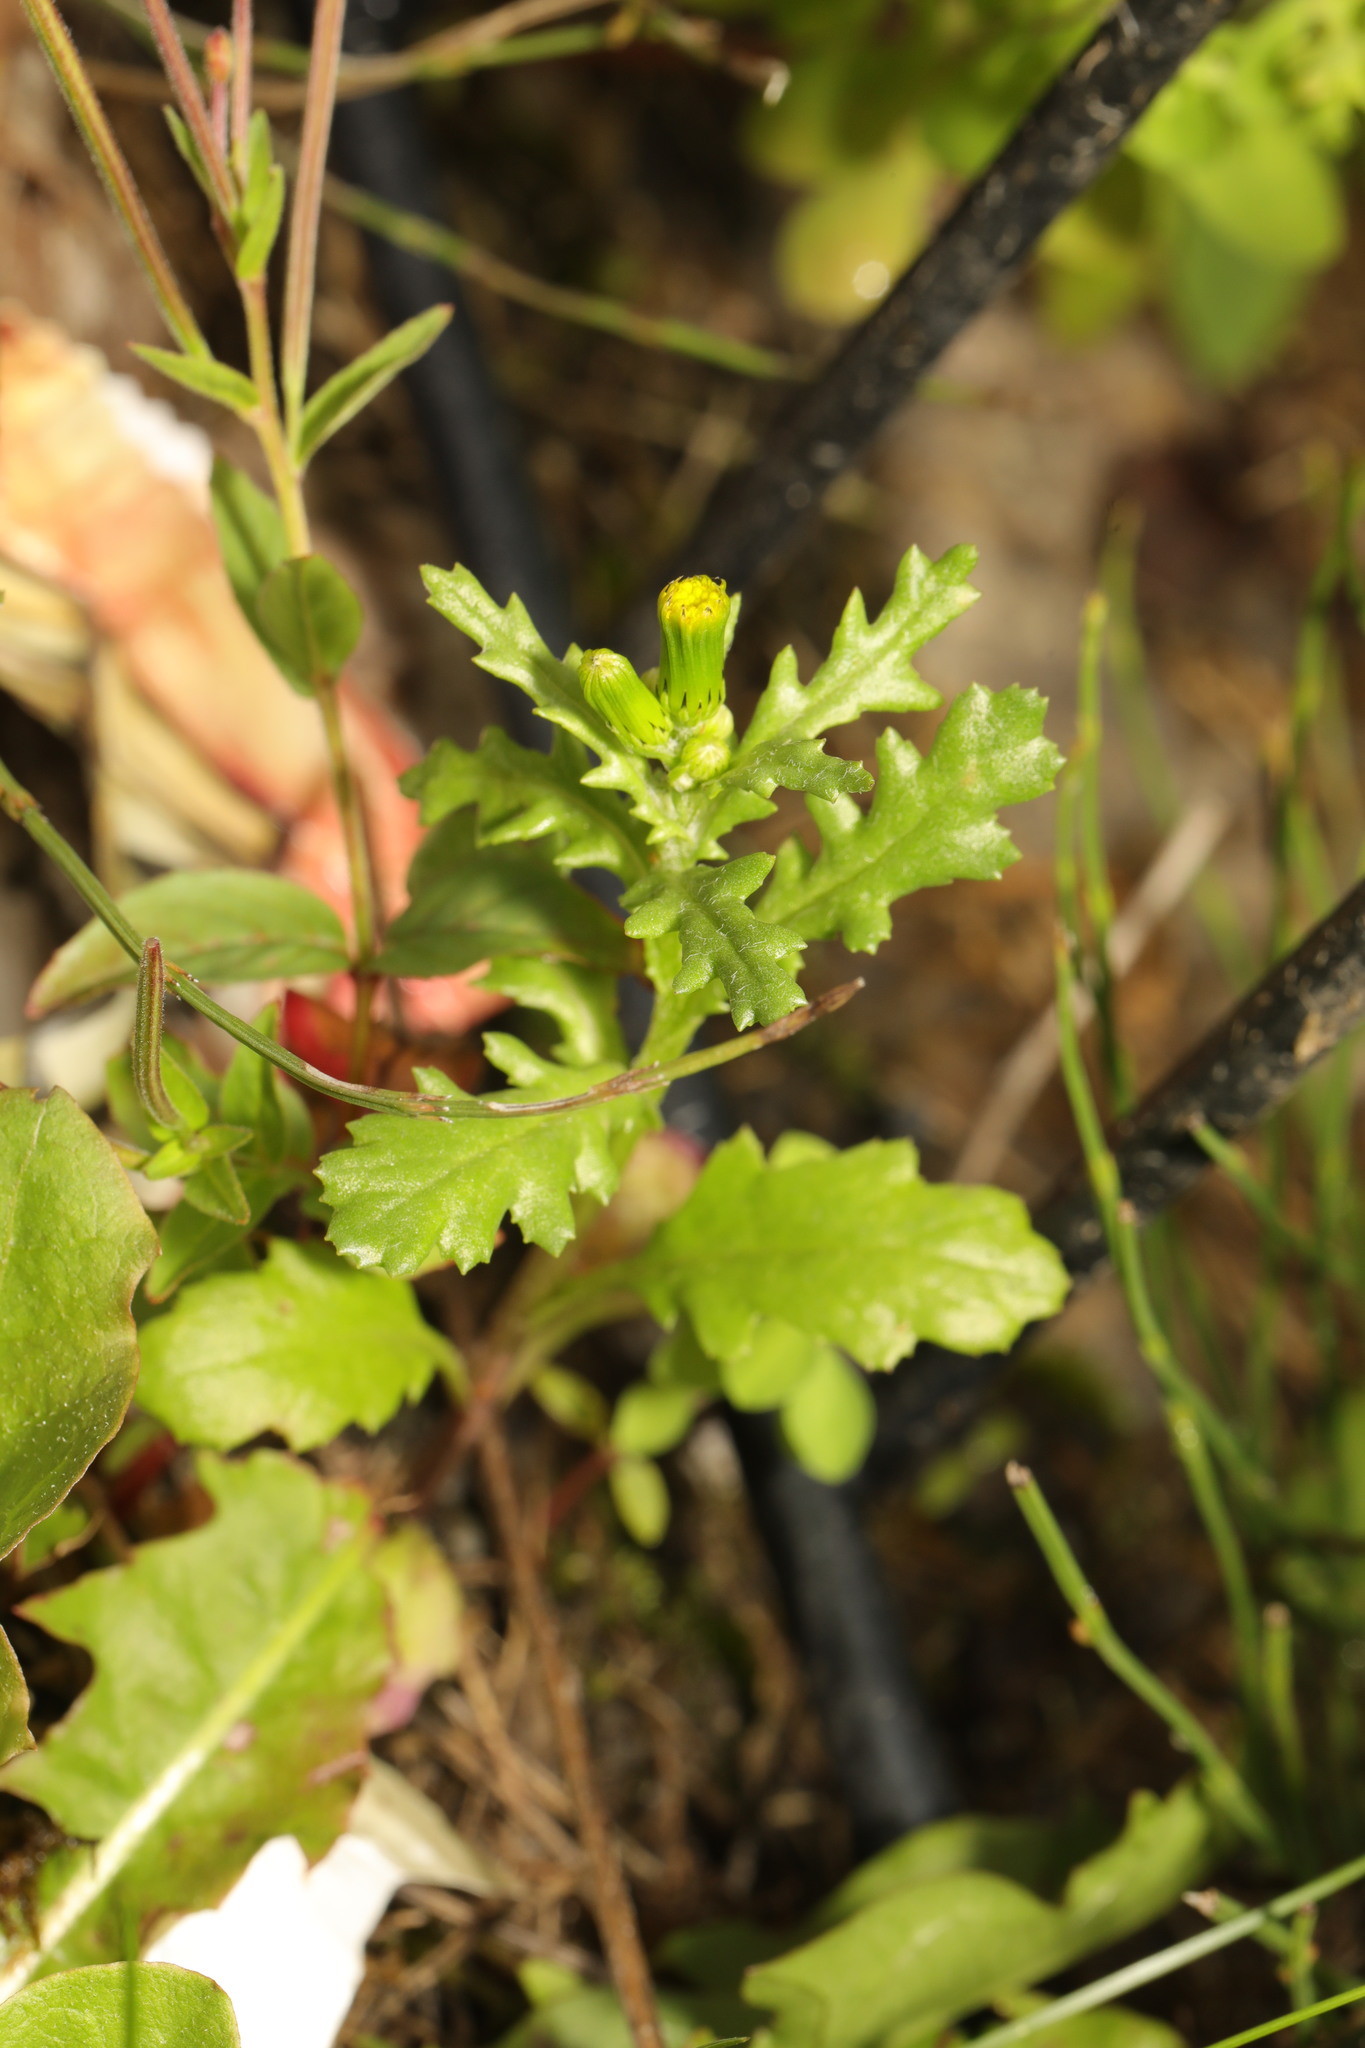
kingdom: Plantae
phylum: Tracheophyta
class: Magnoliopsida
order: Asterales
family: Asteraceae
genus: Senecio
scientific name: Senecio vulgaris
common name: Old-man-in-the-spring
